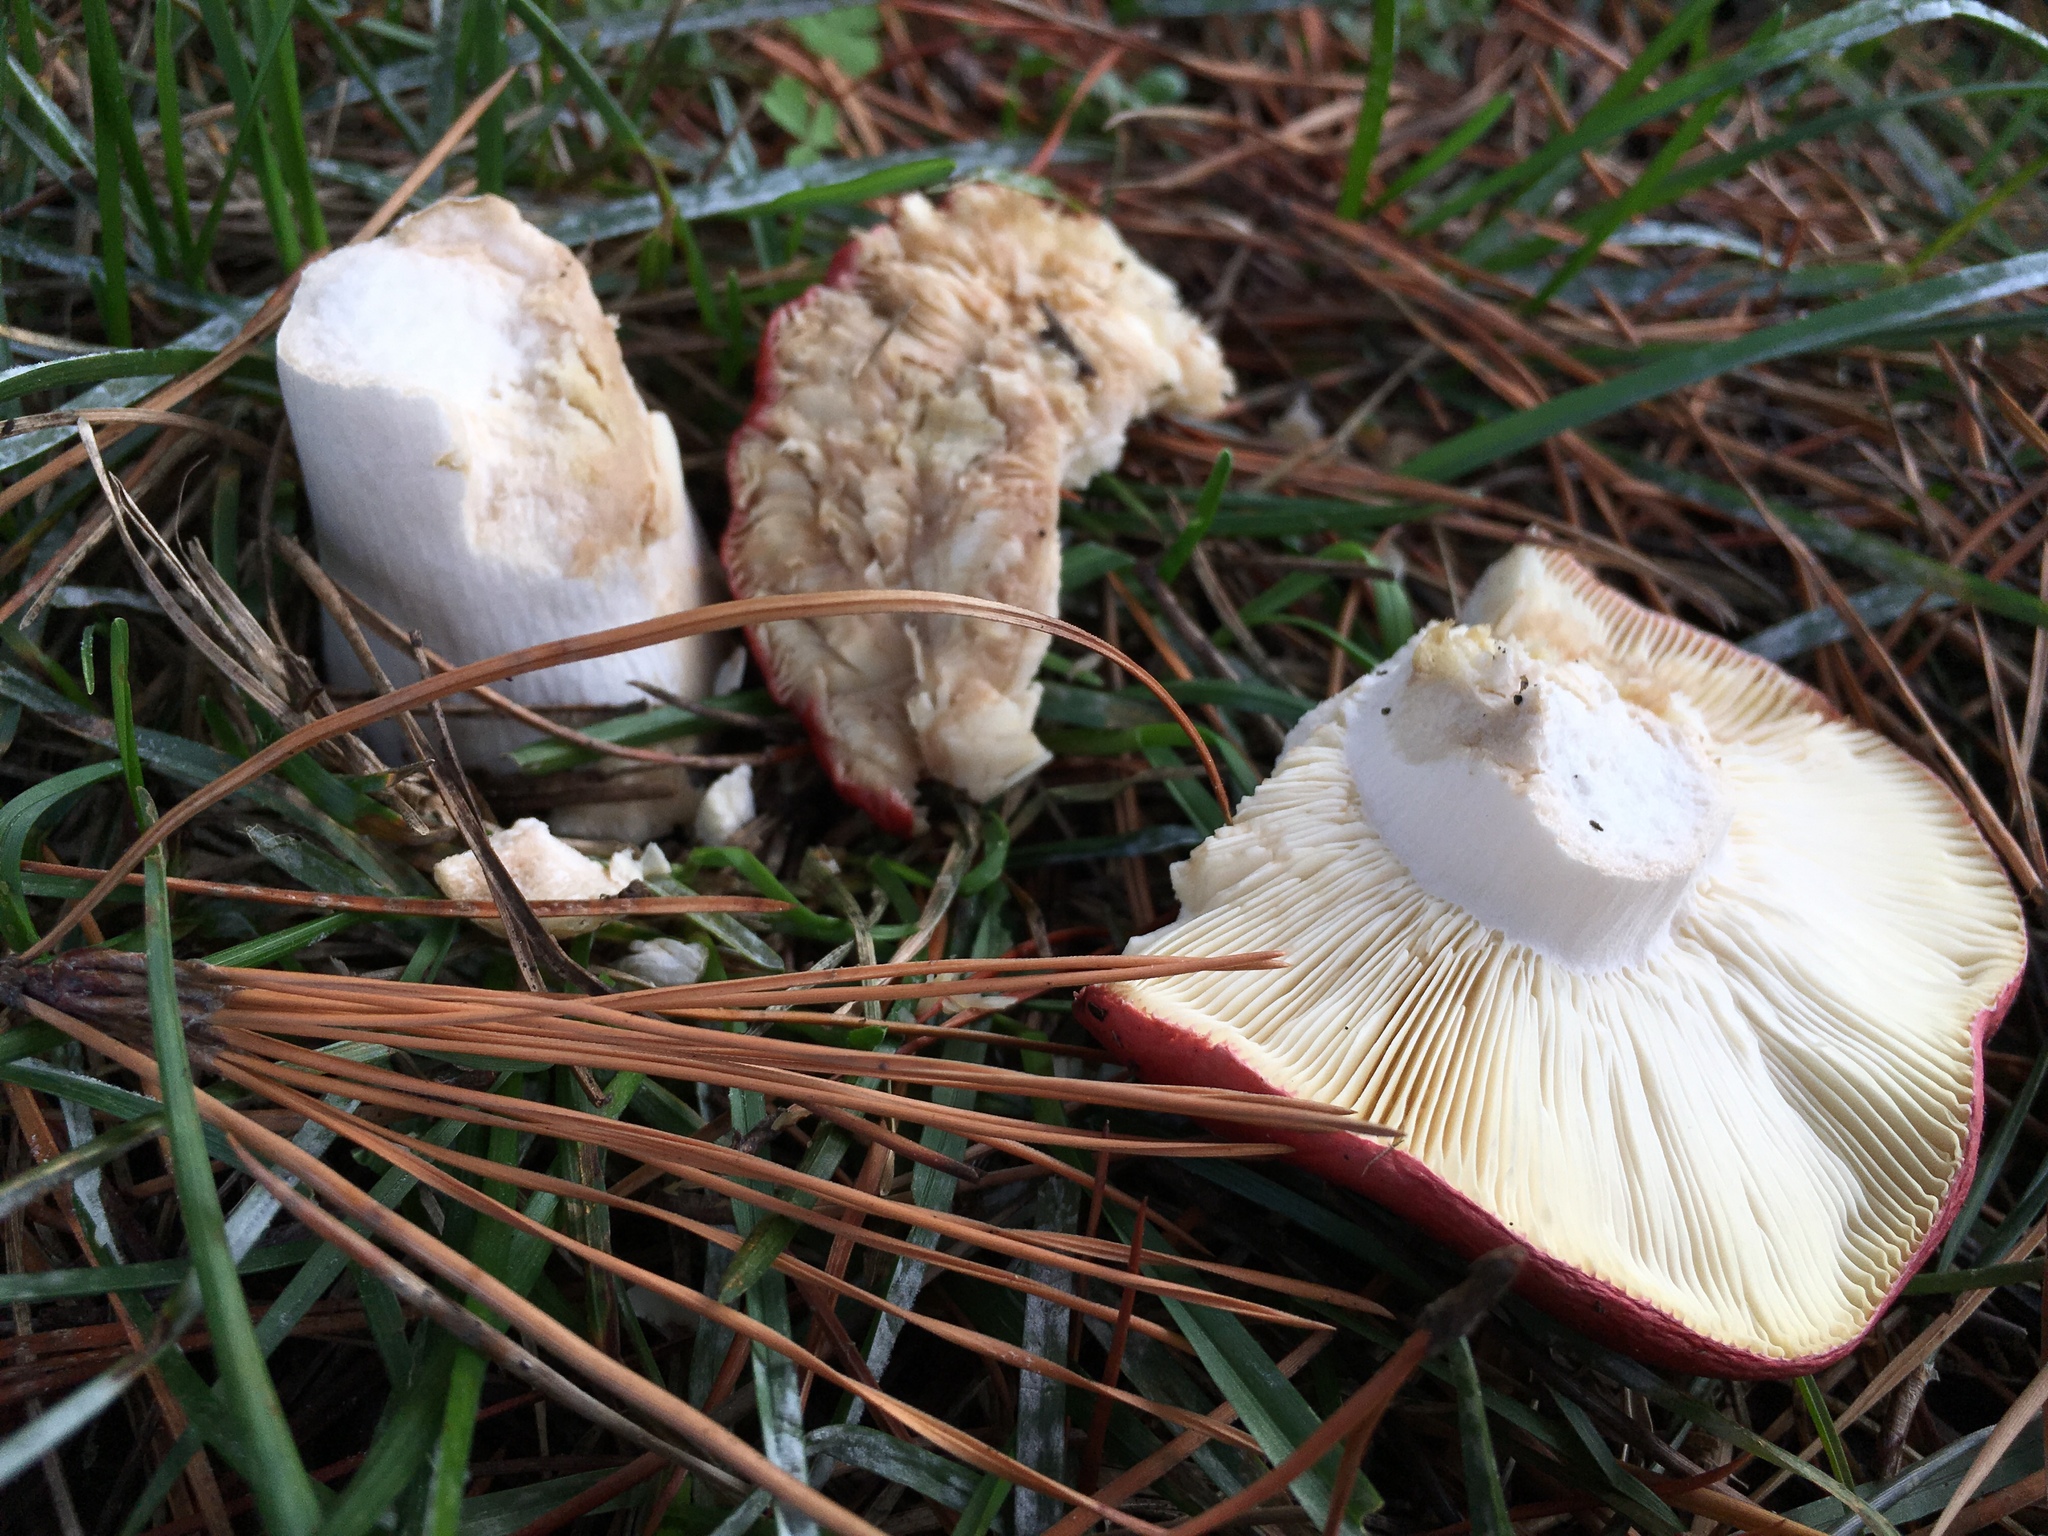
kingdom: Fungi
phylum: Basidiomycota
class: Agaricomycetes
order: Russulales
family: Russulaceae
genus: Russula
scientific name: Russula rhodocephala
